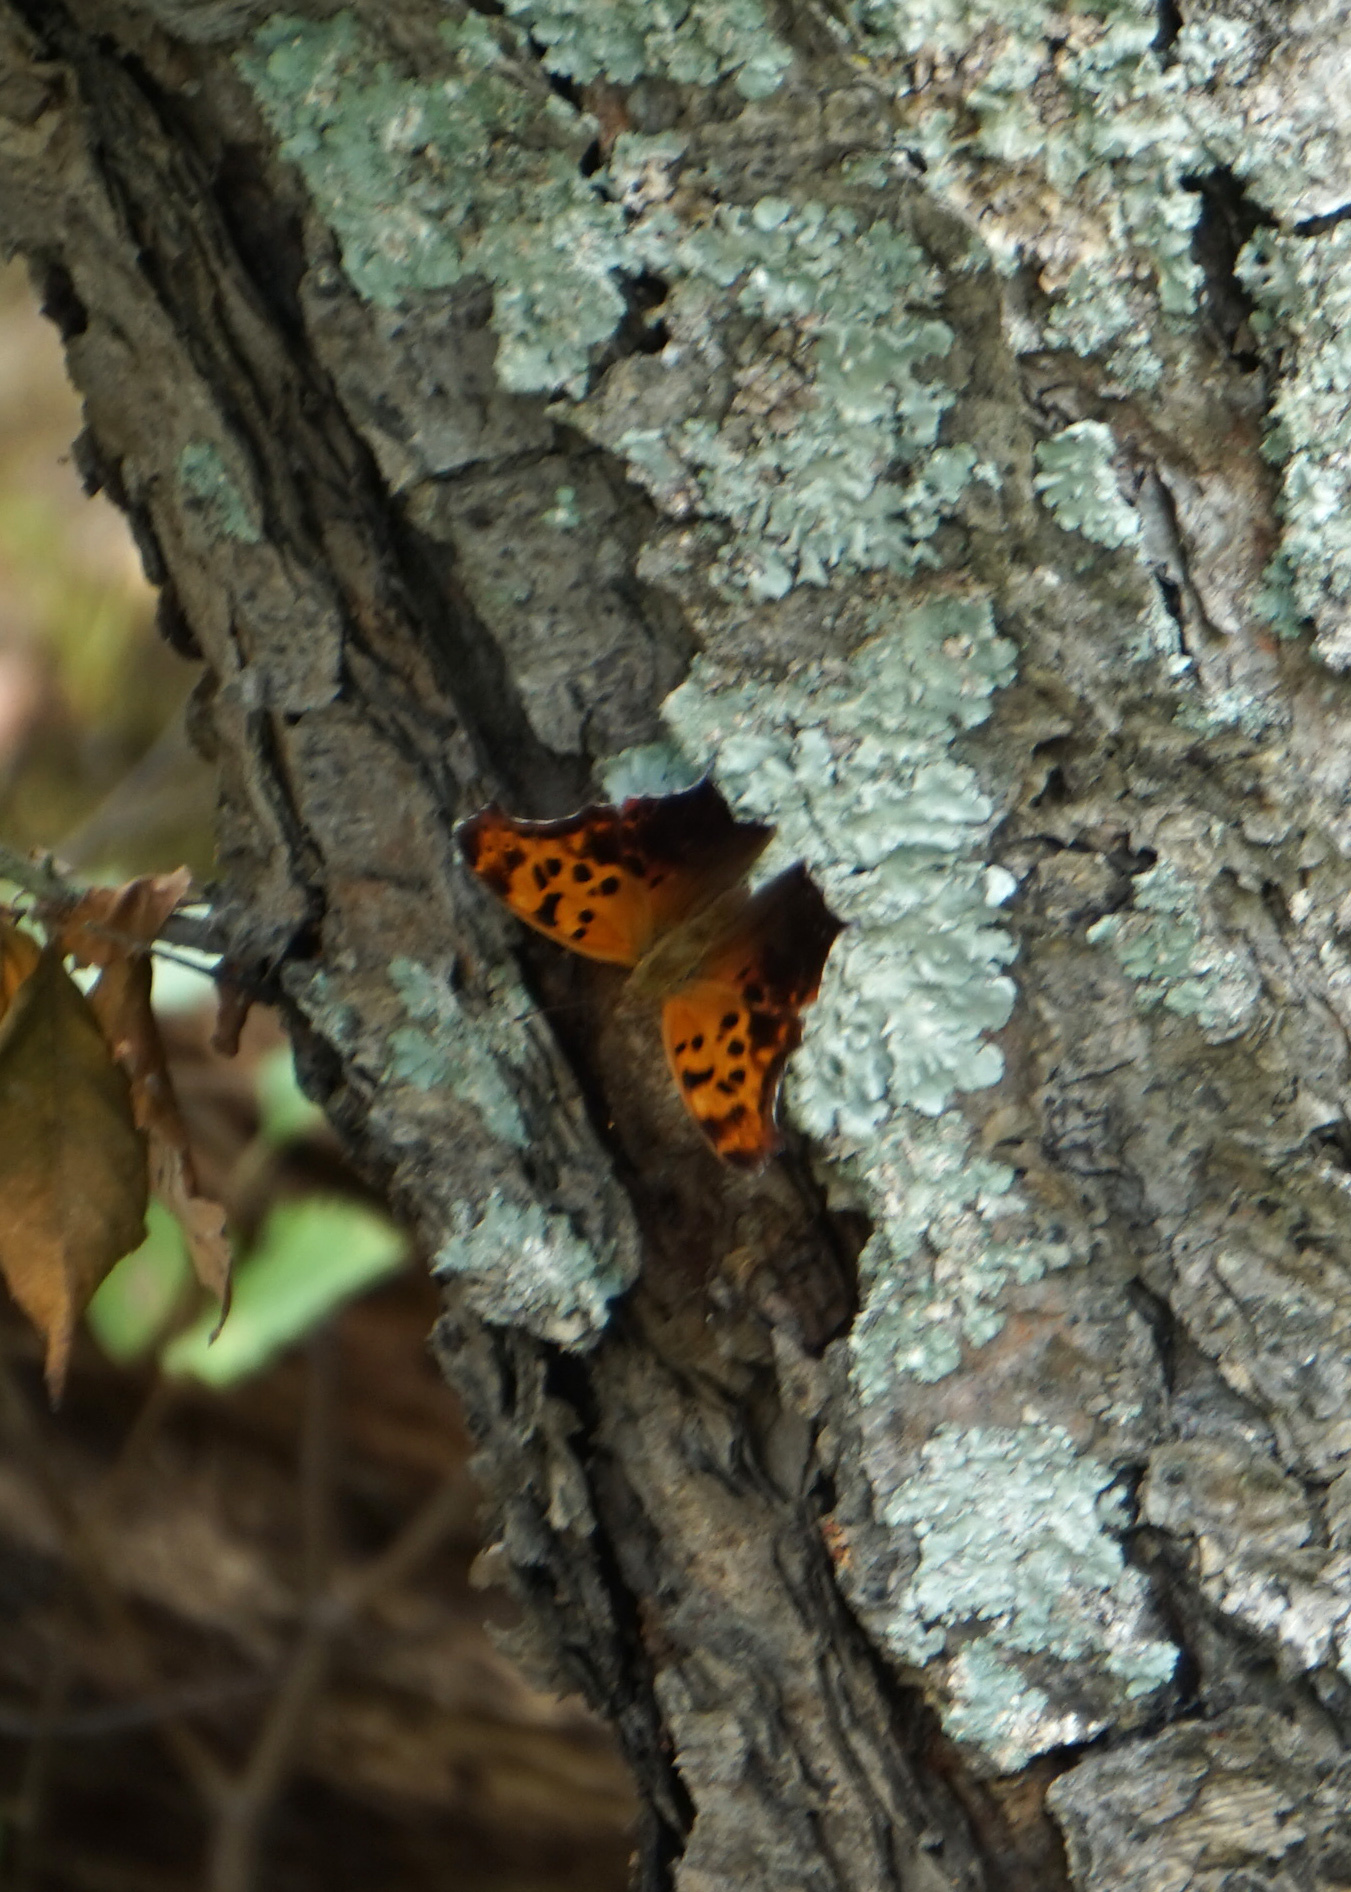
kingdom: Animalia
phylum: Arthropoda
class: Insecta
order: Lepidoptera
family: Nymphalidae
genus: Polygonia
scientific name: Polygonia interrogationis
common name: Question mark
